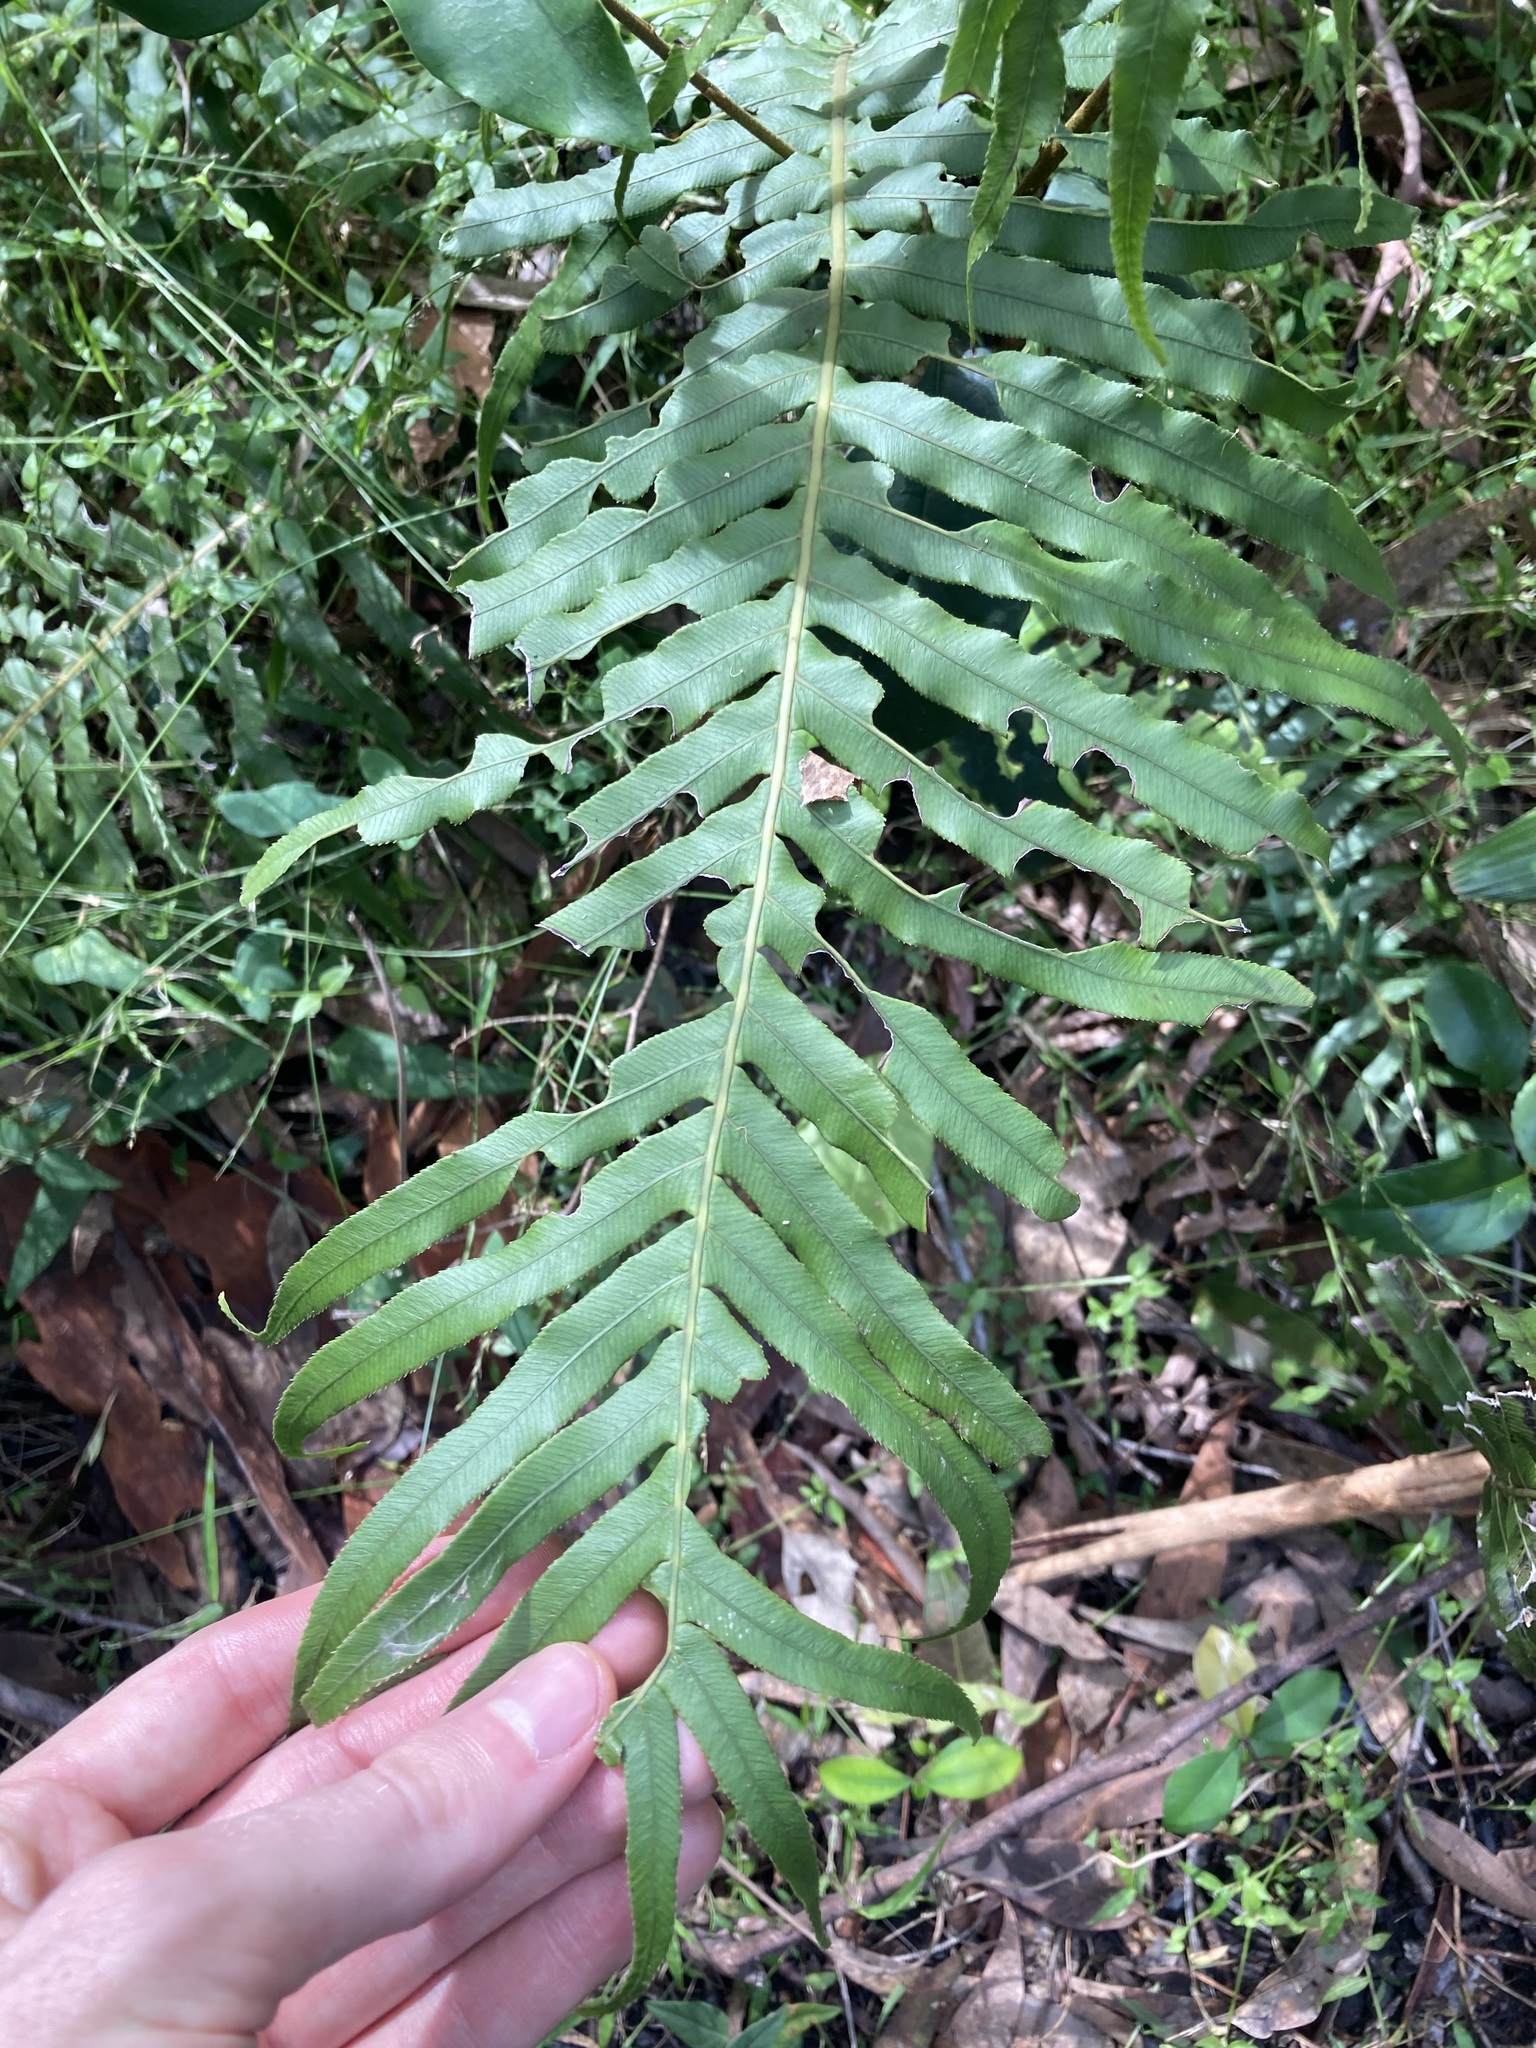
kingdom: Plantae
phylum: Tracheophyta
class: Polypodiopsida
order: Polypodiales
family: Blechnaceae
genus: Oceaniopteris
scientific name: Oceaniopteris cartilaginea
